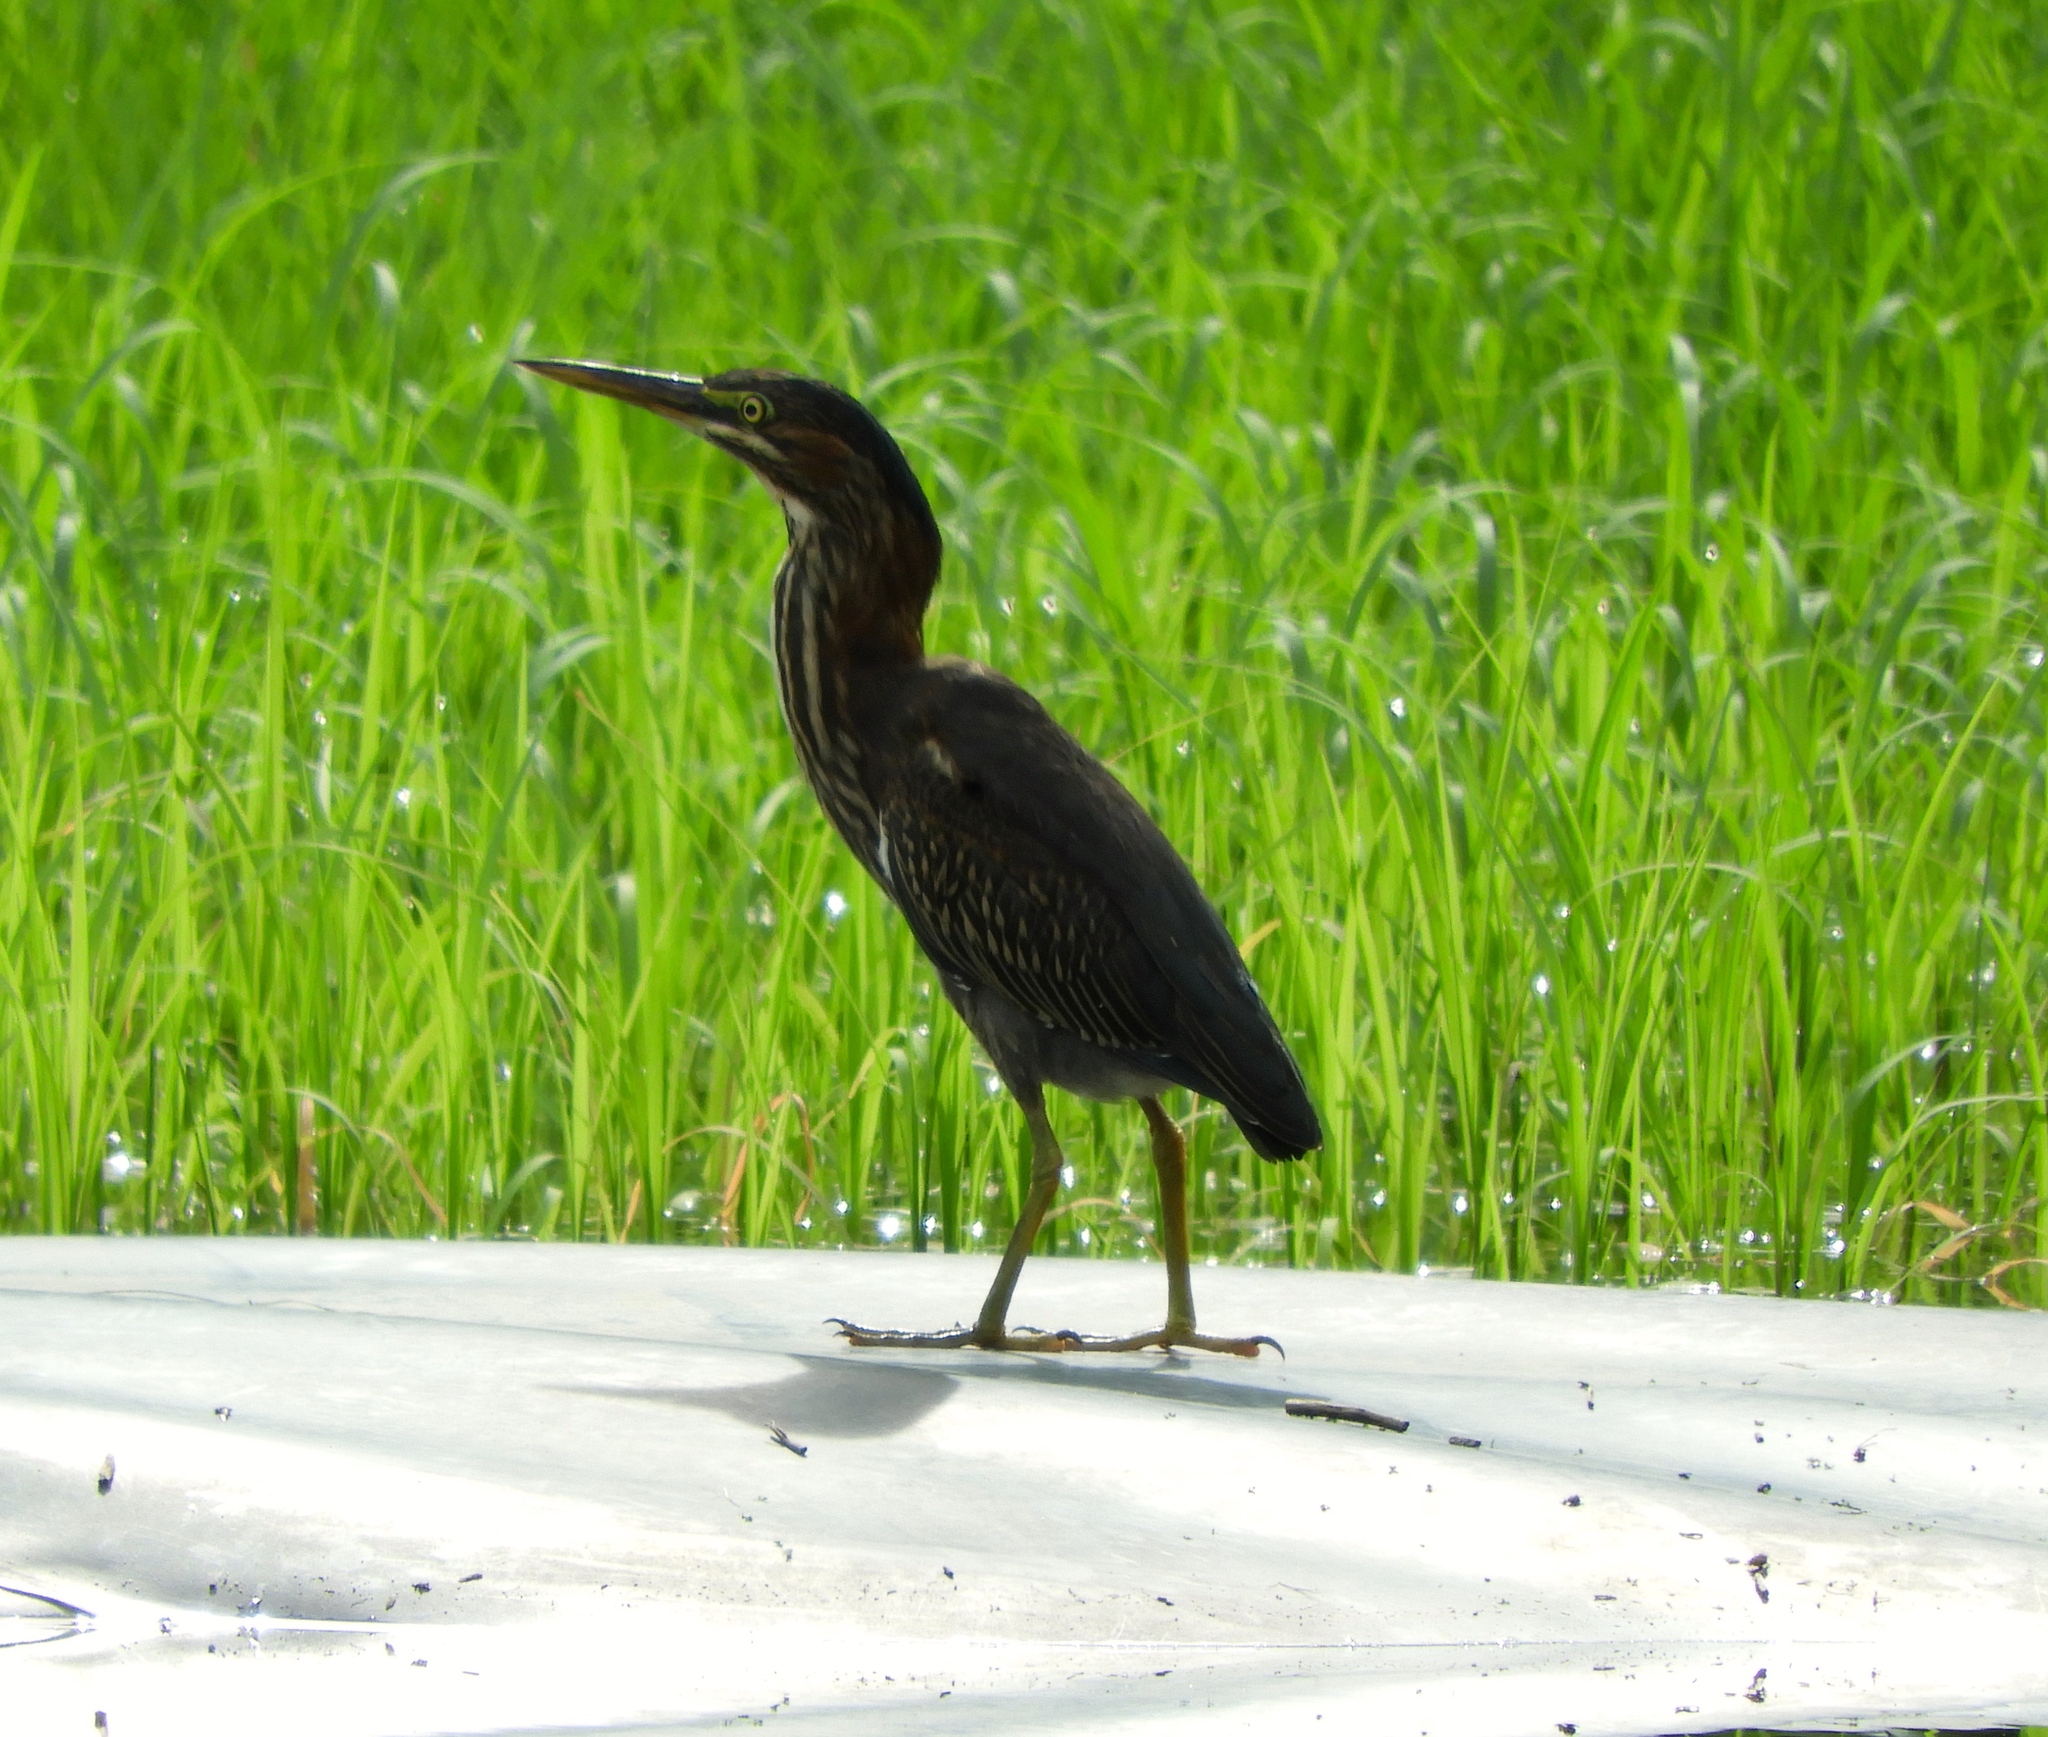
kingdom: Animalia
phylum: Chordata
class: Aves
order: Pelecaniformes
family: Ardeidae
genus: Butorides
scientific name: Butorides virescens
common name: Green heron
